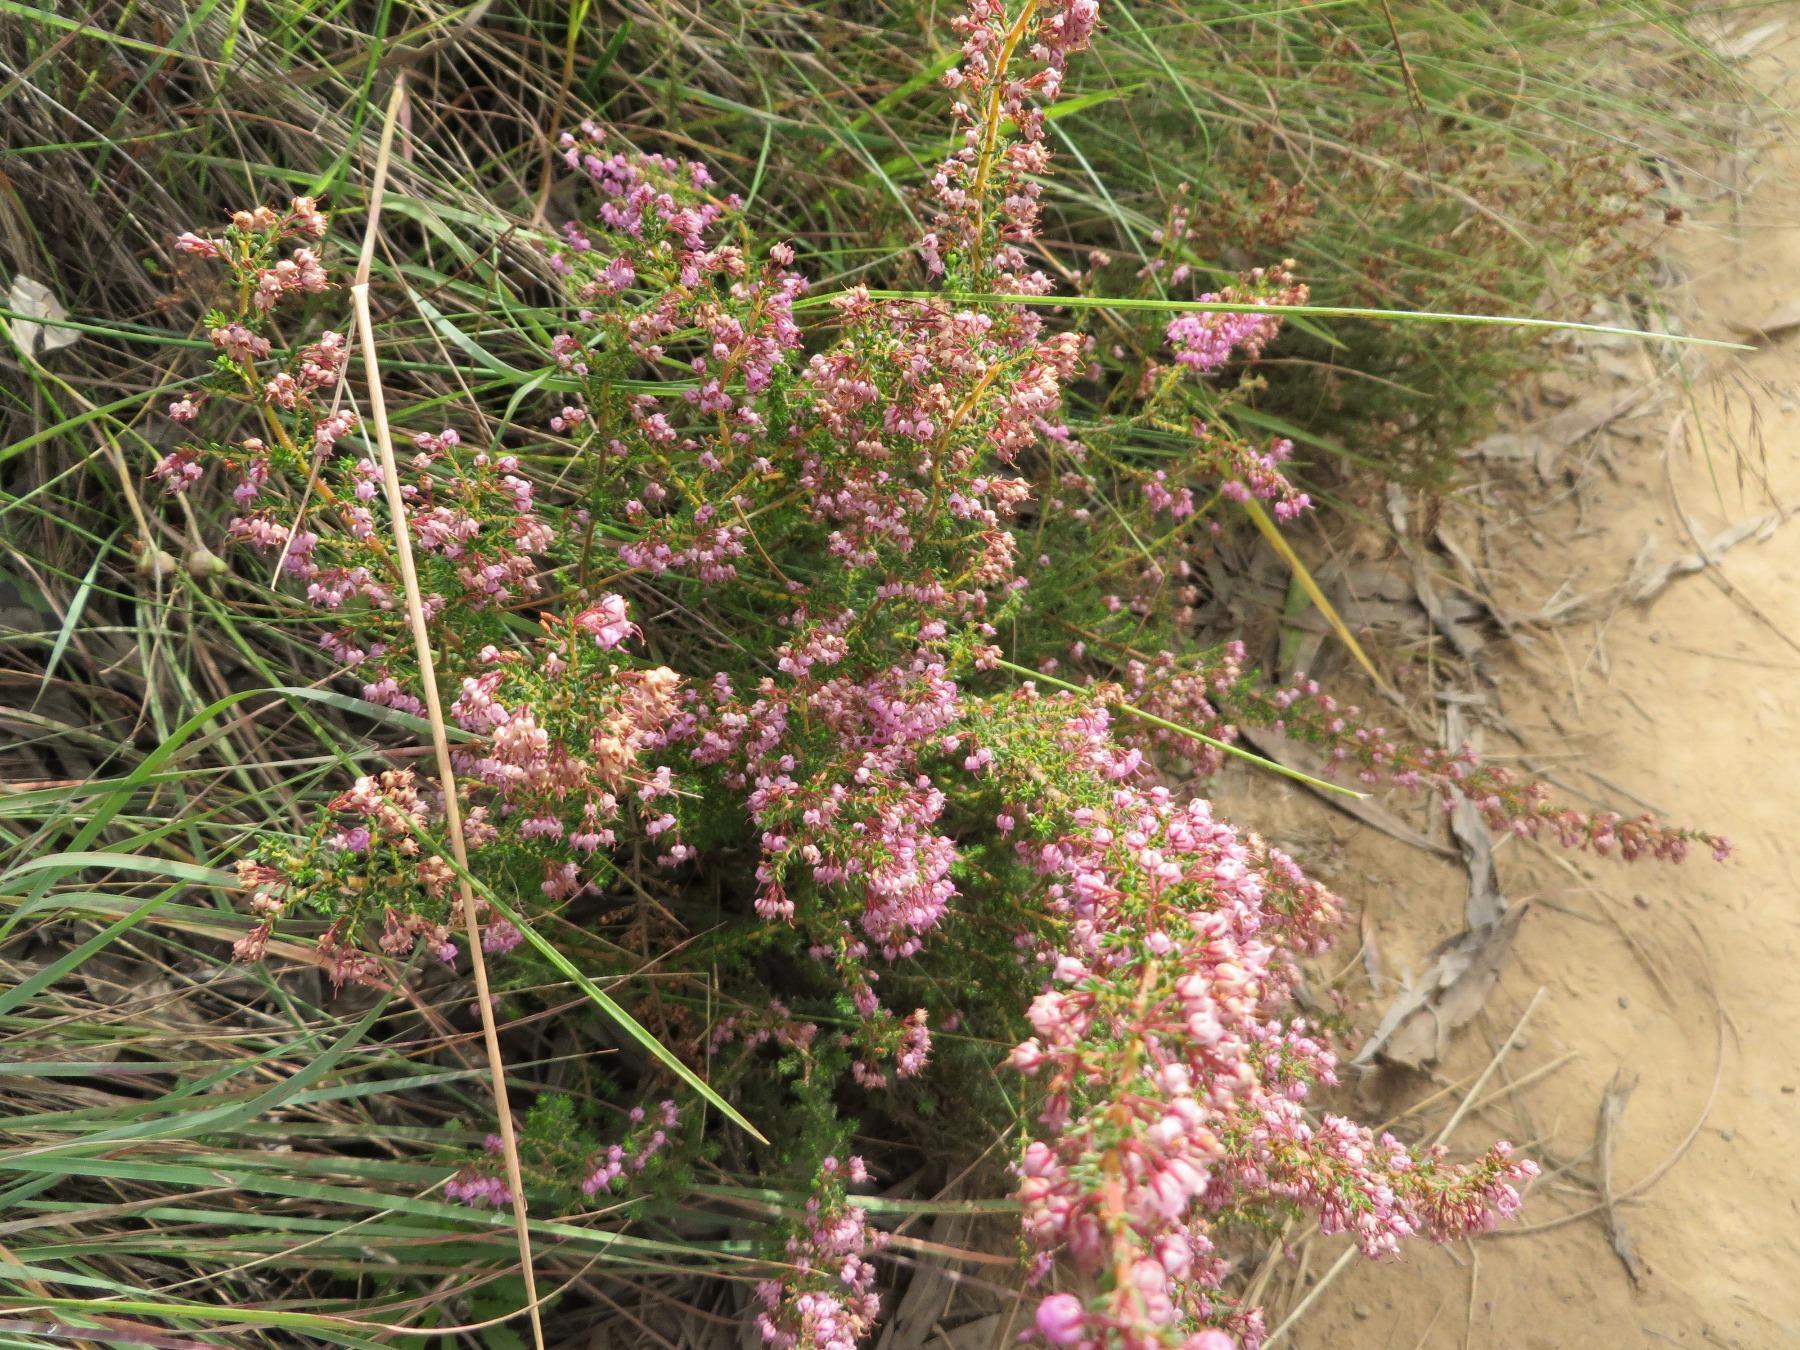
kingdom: Plantae
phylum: Tracheophyta
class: Magnoliopsida
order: Ericales
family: Ericaceae
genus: Erica
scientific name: Erica woodii
